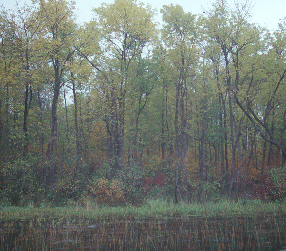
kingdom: Plantae
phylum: Tracheophyta
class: Magnoliopsida
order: Lamiales
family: Oleaceae
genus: Fraxinus
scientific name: Fraxinus nigra
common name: Black ash
